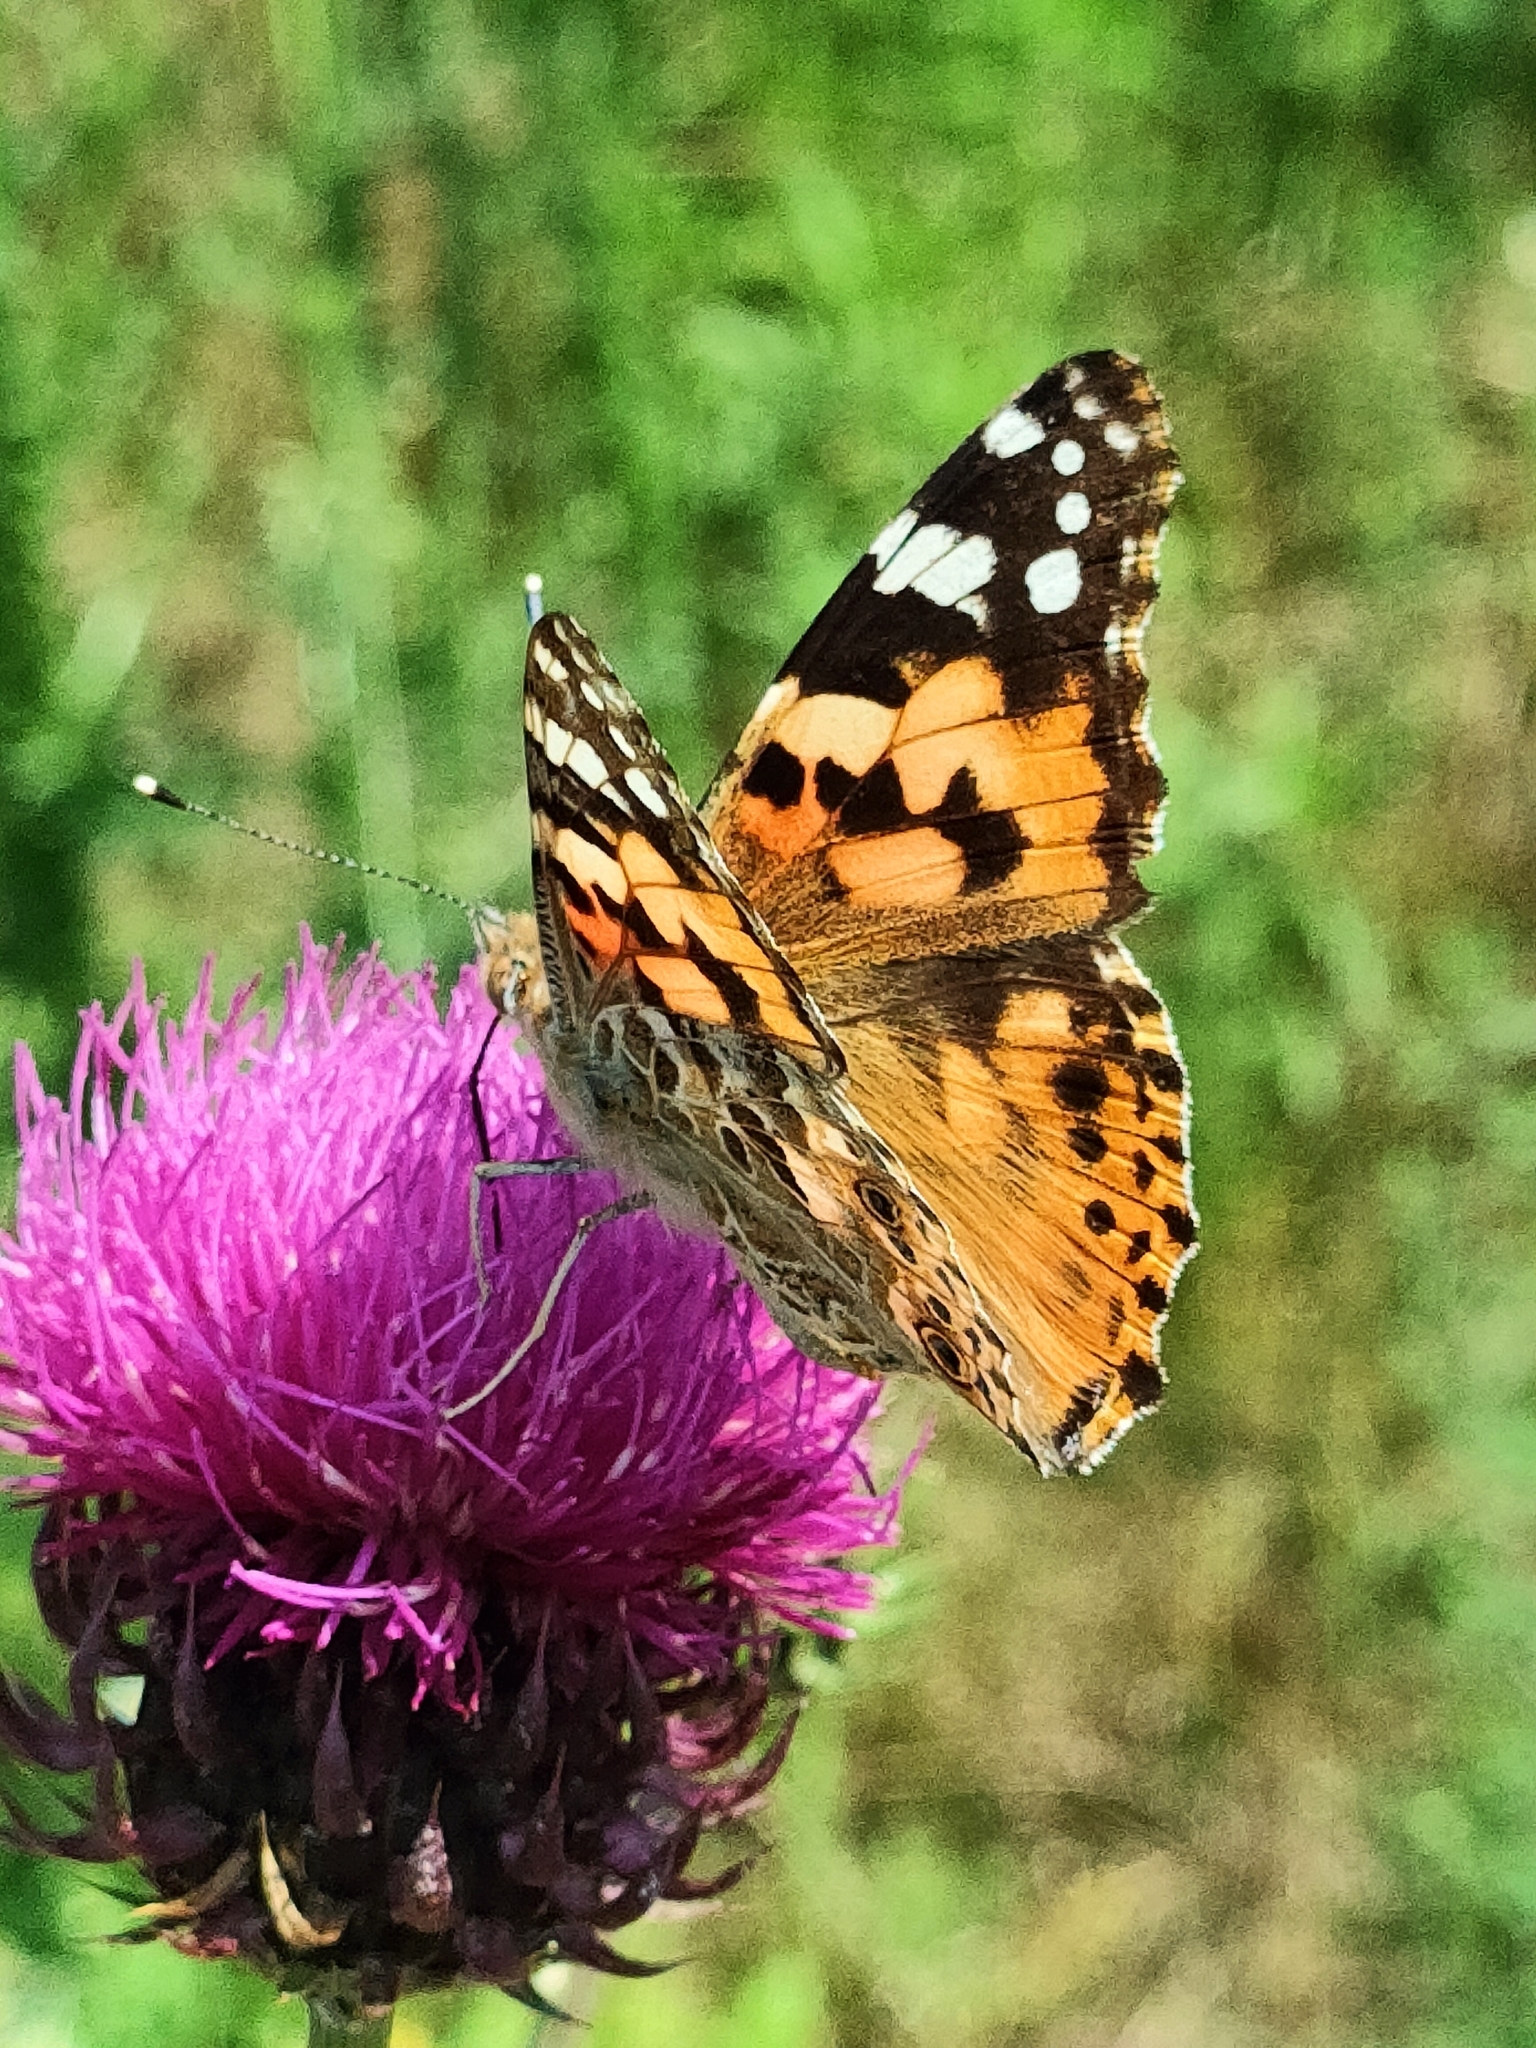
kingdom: Animalia
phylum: Arthropoda
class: Insecta
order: Lepidoptera
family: Nymphalidae
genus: Vanessa
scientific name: Vanessa cardui
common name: Painted lady
